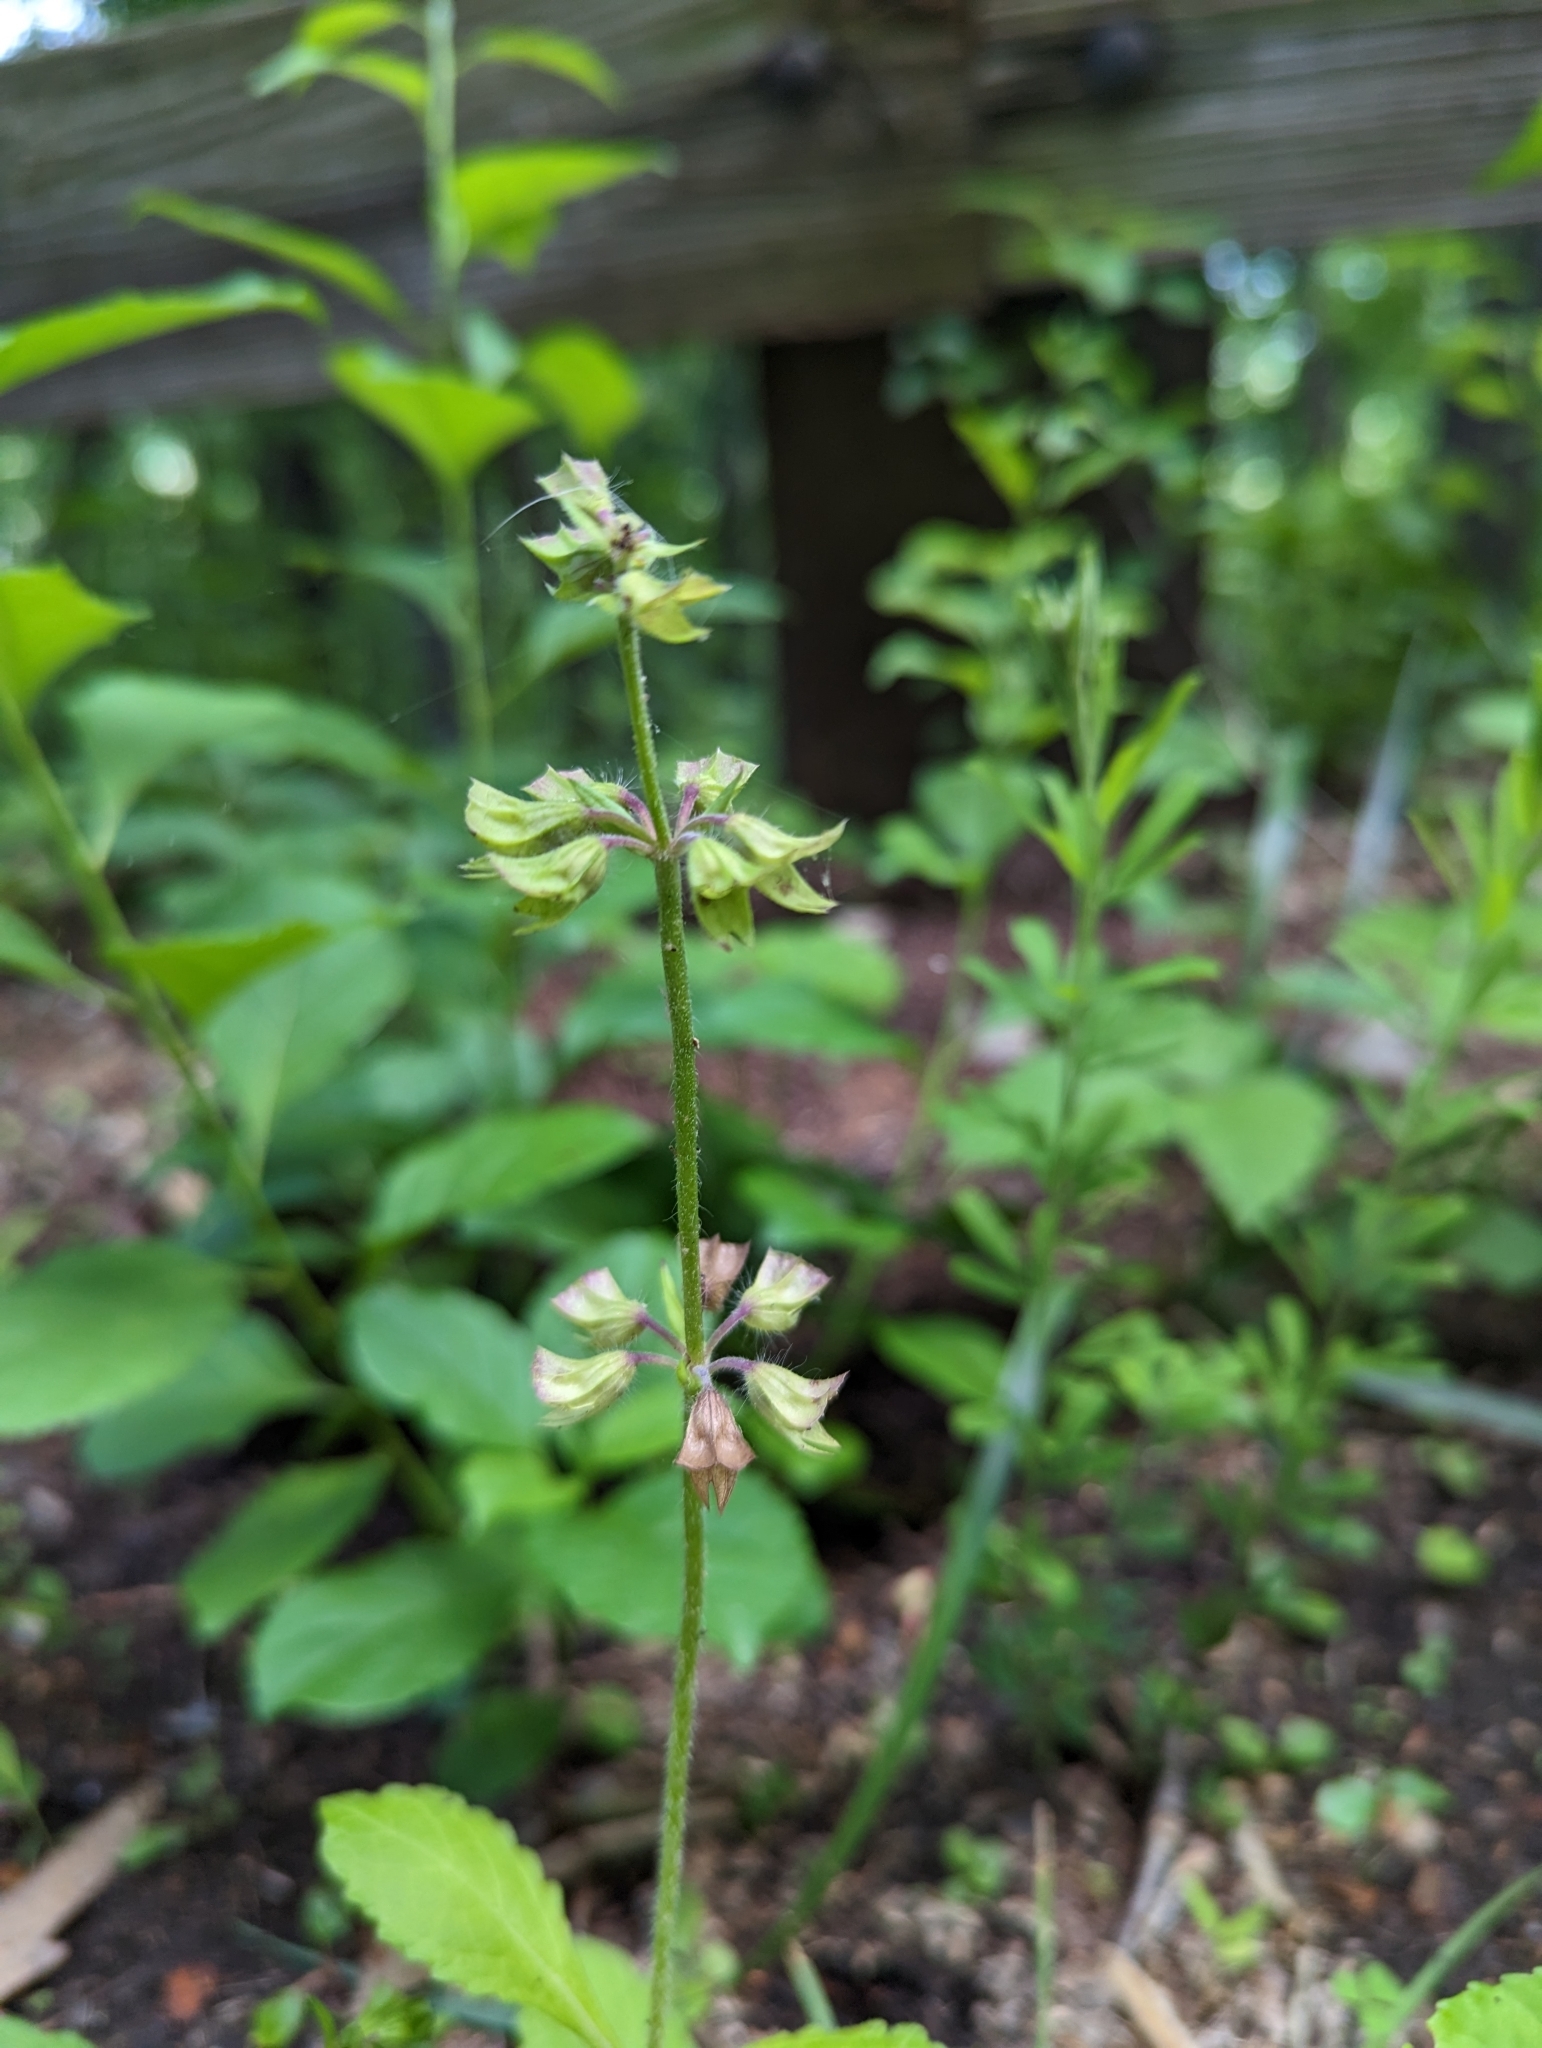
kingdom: Plantae
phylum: Tracheophyta
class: Magnoliopsida
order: Lamiales
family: Lamiaceae
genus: Salvia
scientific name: Salvia lyrata
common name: Cancerweed
